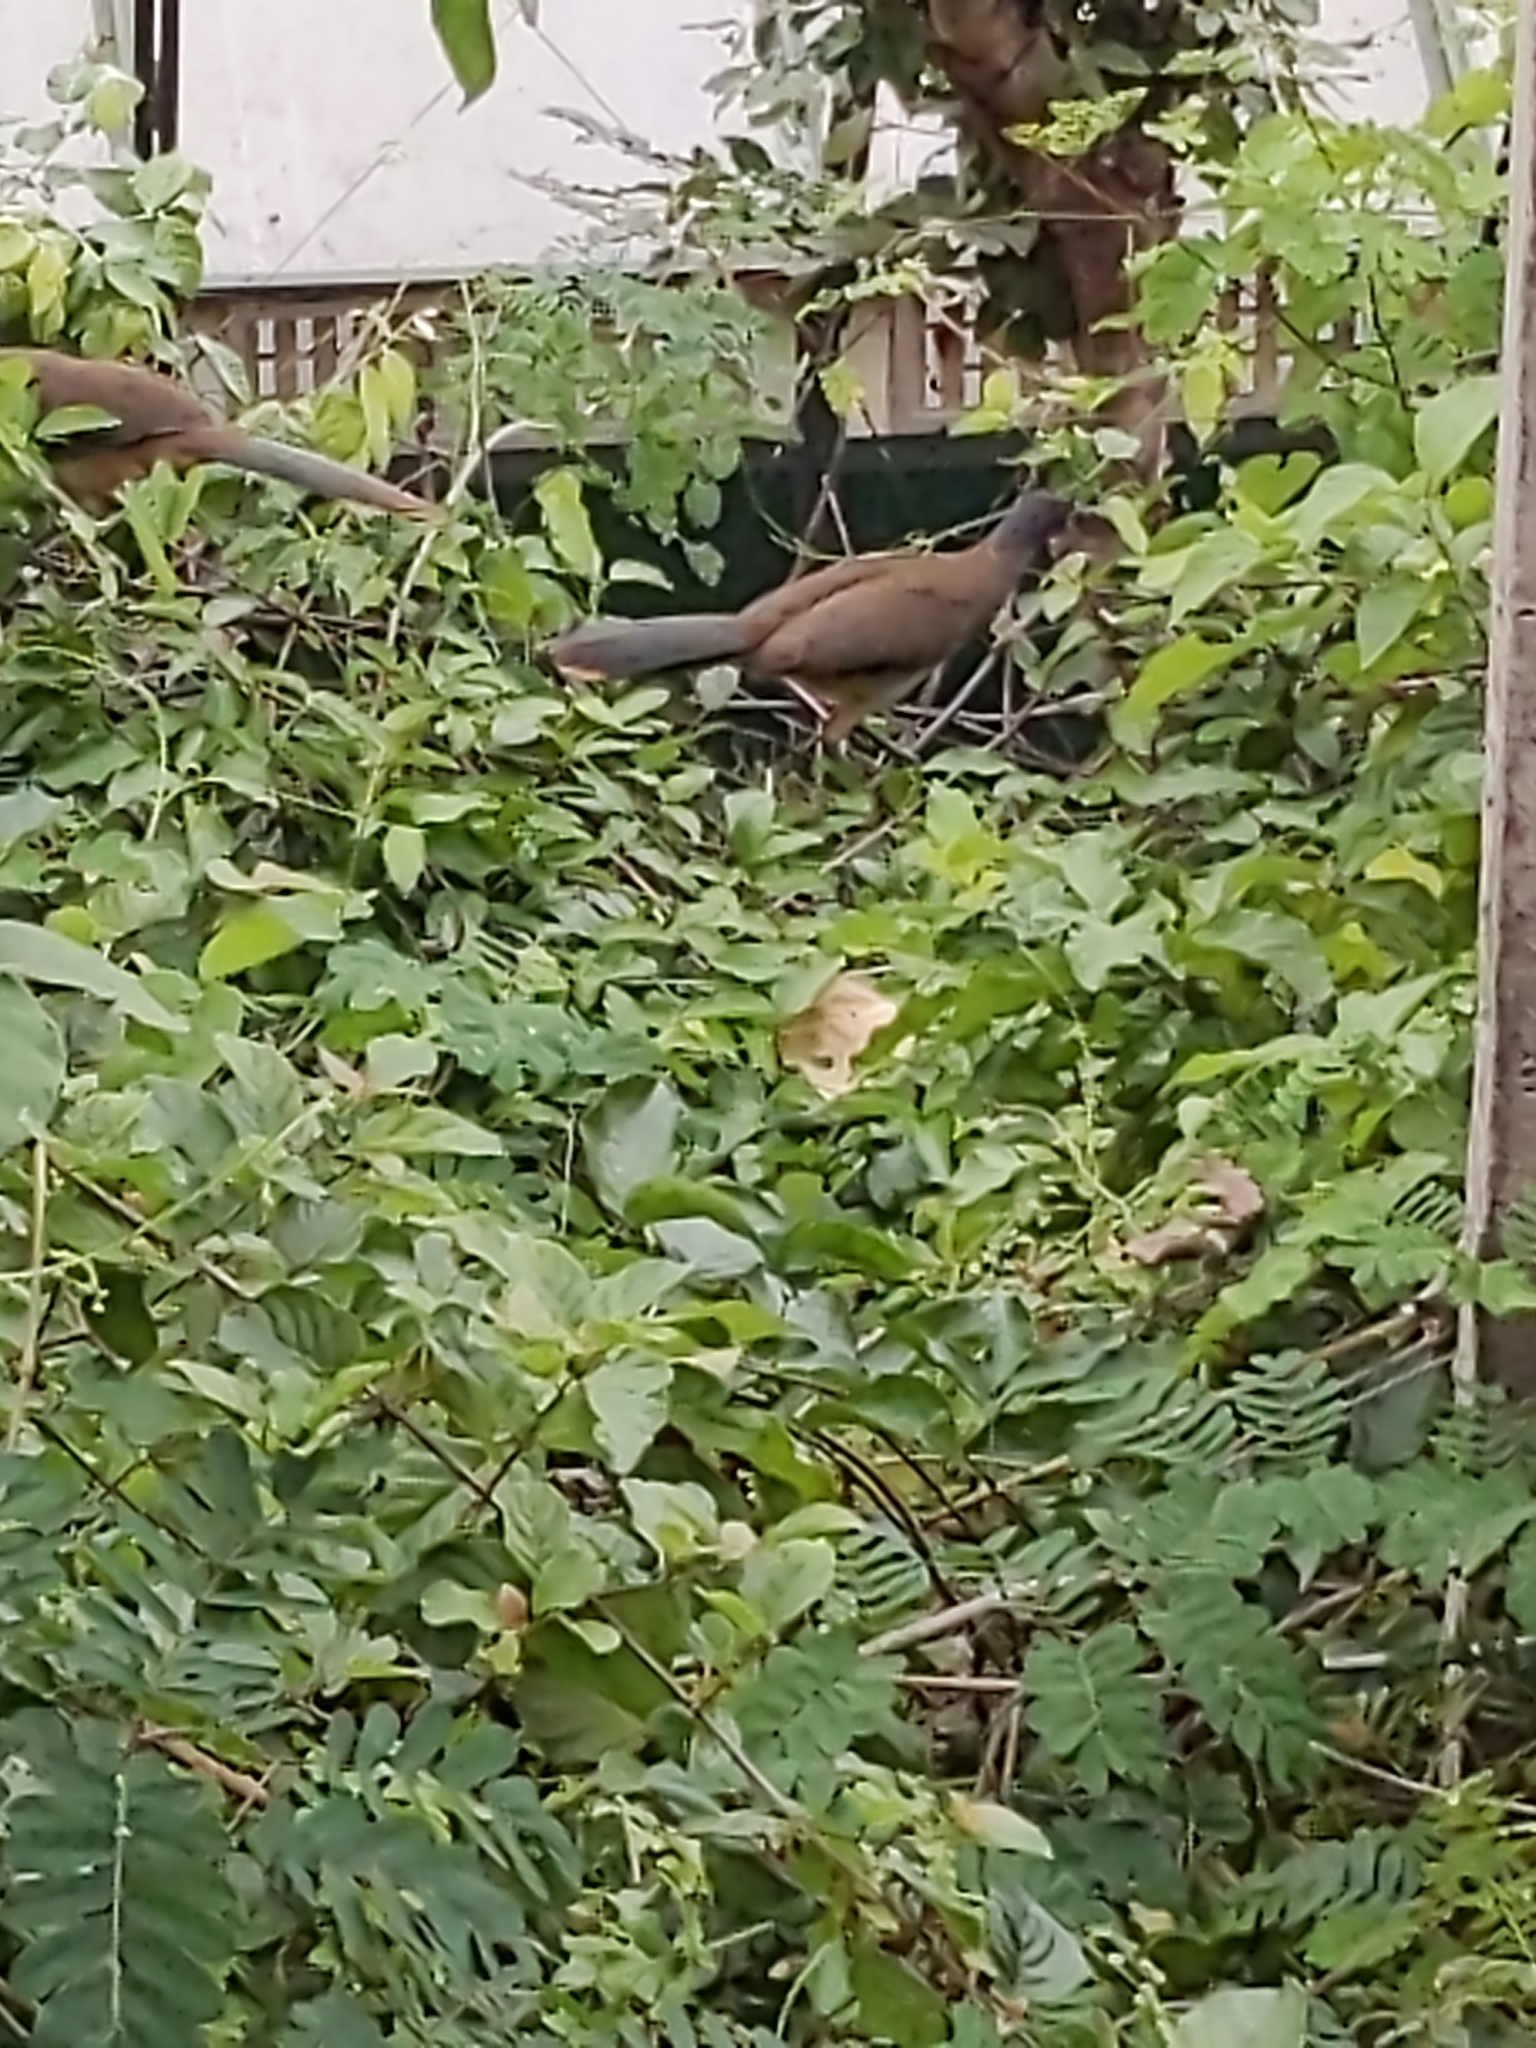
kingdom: Animalia
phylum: Chordata
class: Aves
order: Galliformes
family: Cracidae
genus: Ortalis
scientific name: Ortalis poliocephala
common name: West mexican chachalaca
